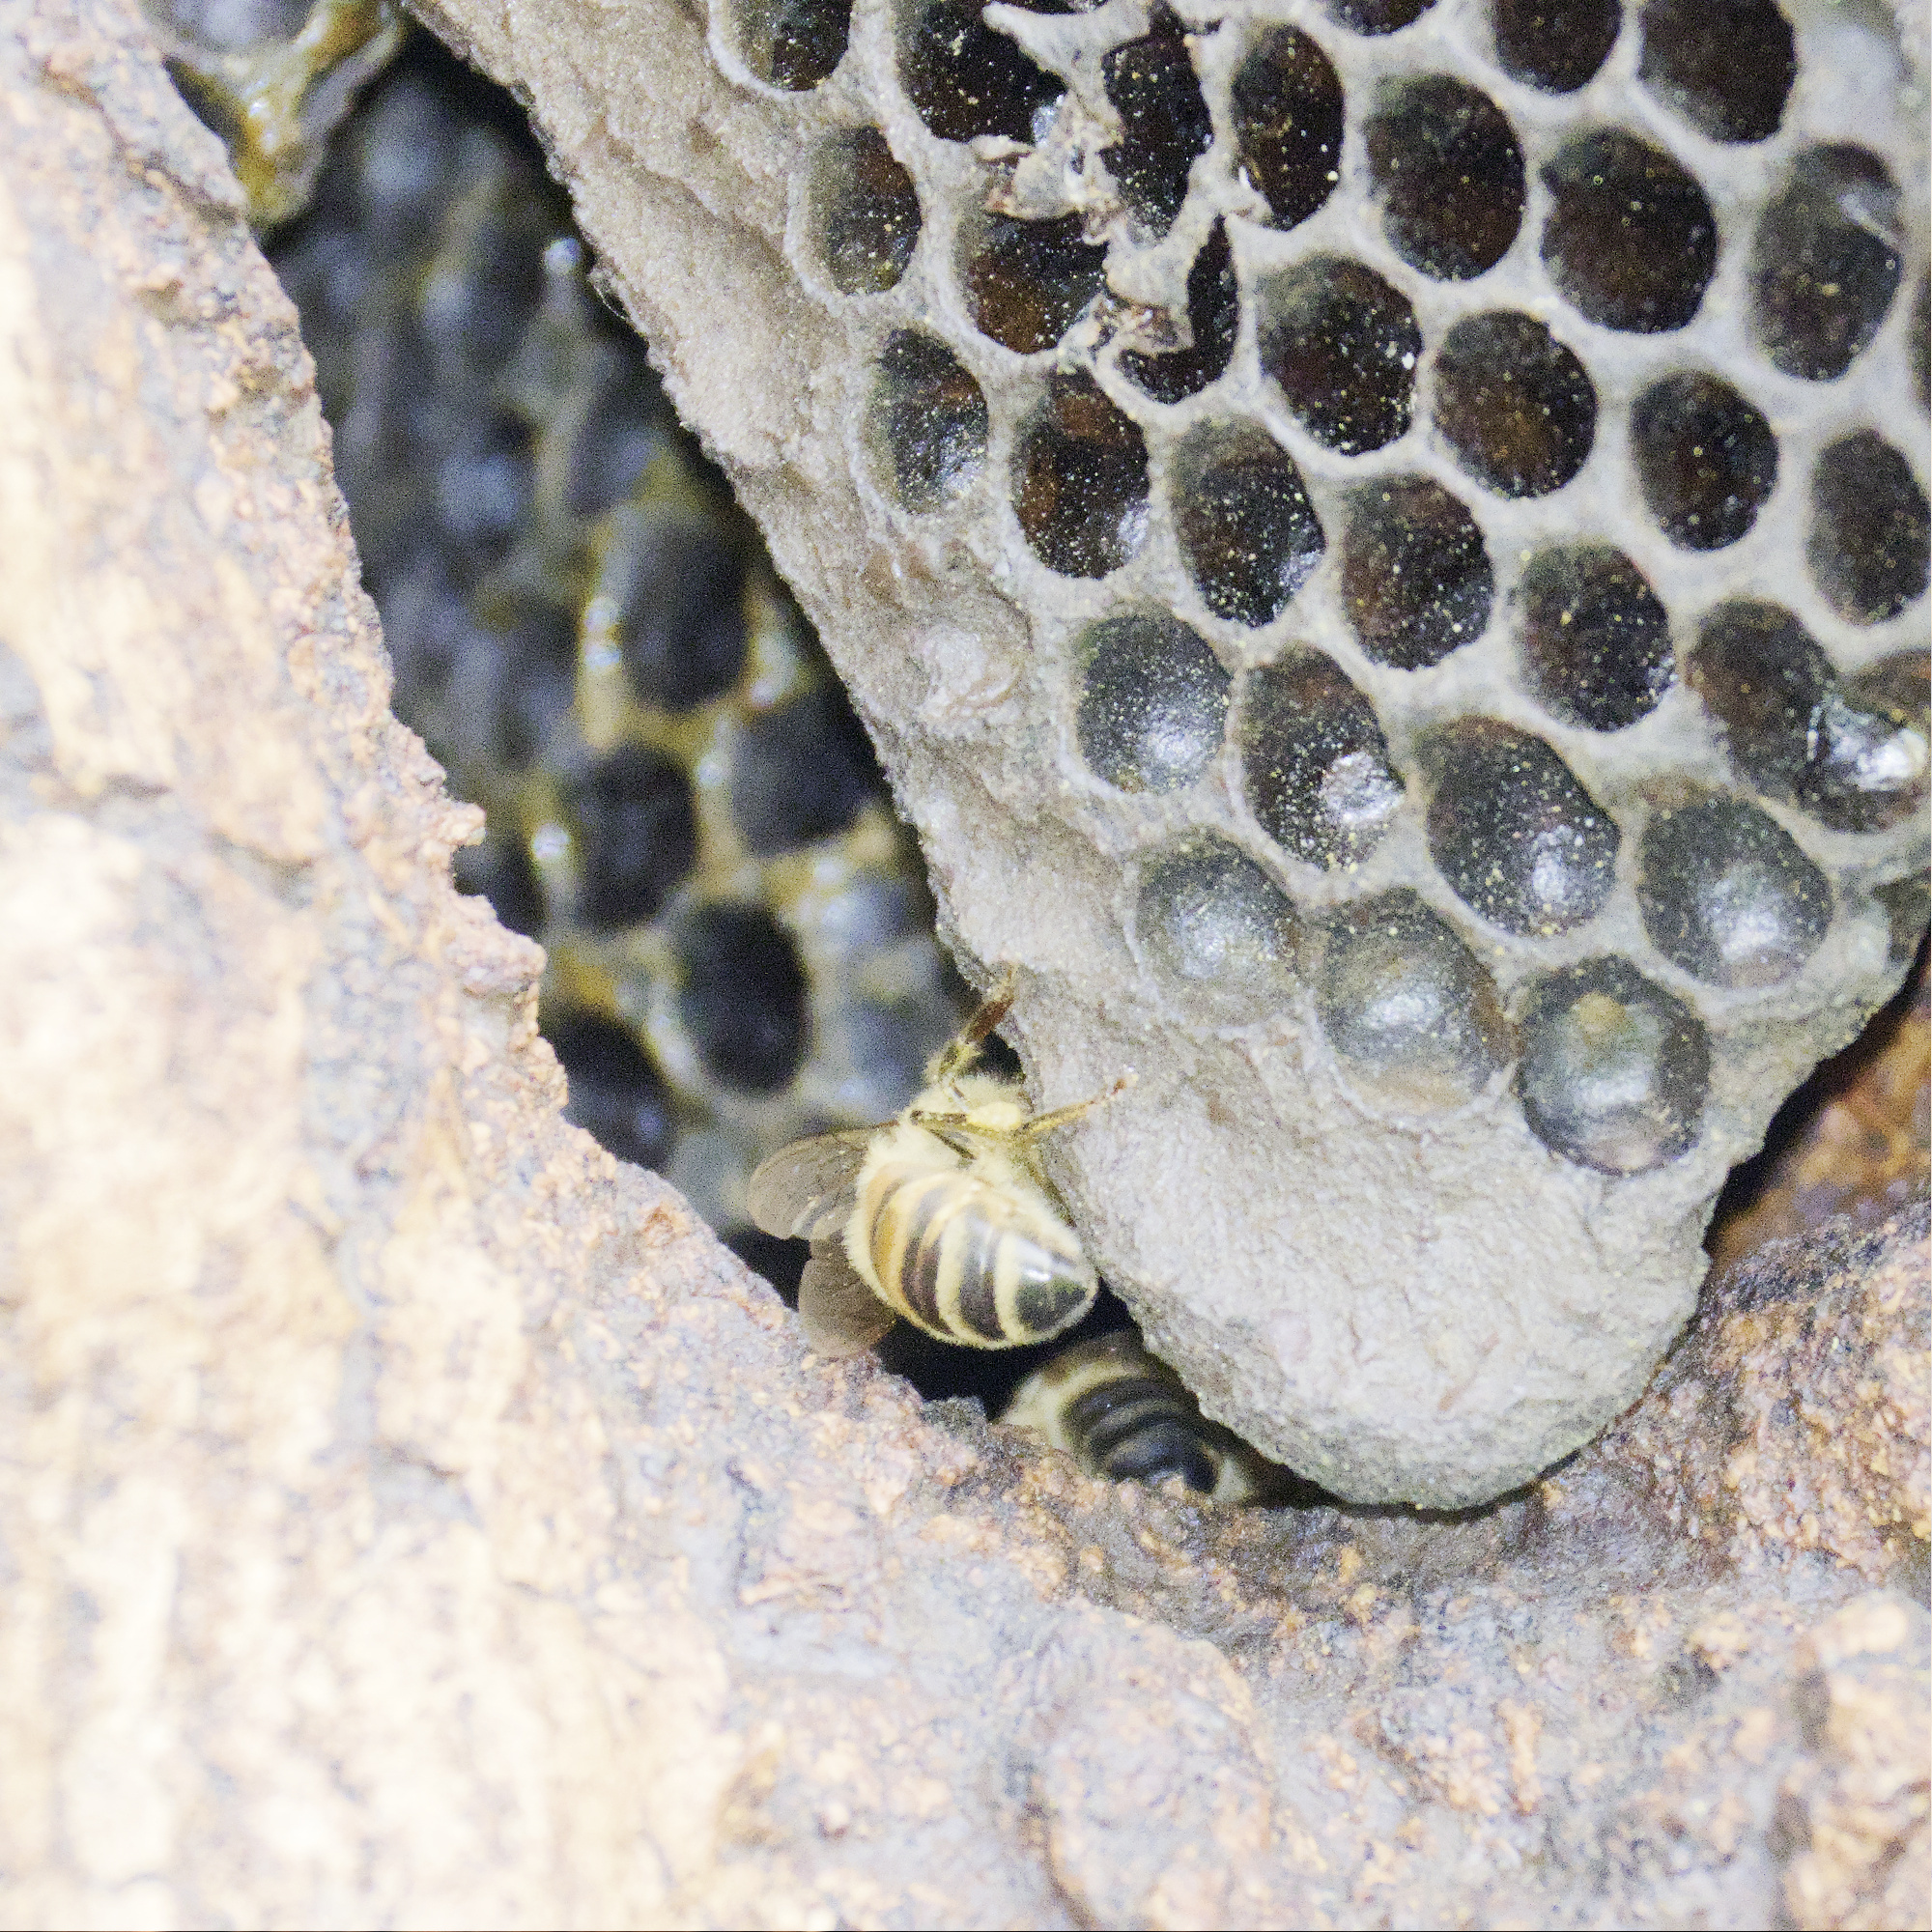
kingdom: Animalia
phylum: Arthropoda
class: Insecta
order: Hymenoptera
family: Apidae
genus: Apis
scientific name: Apis mellifera
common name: Honey bee
